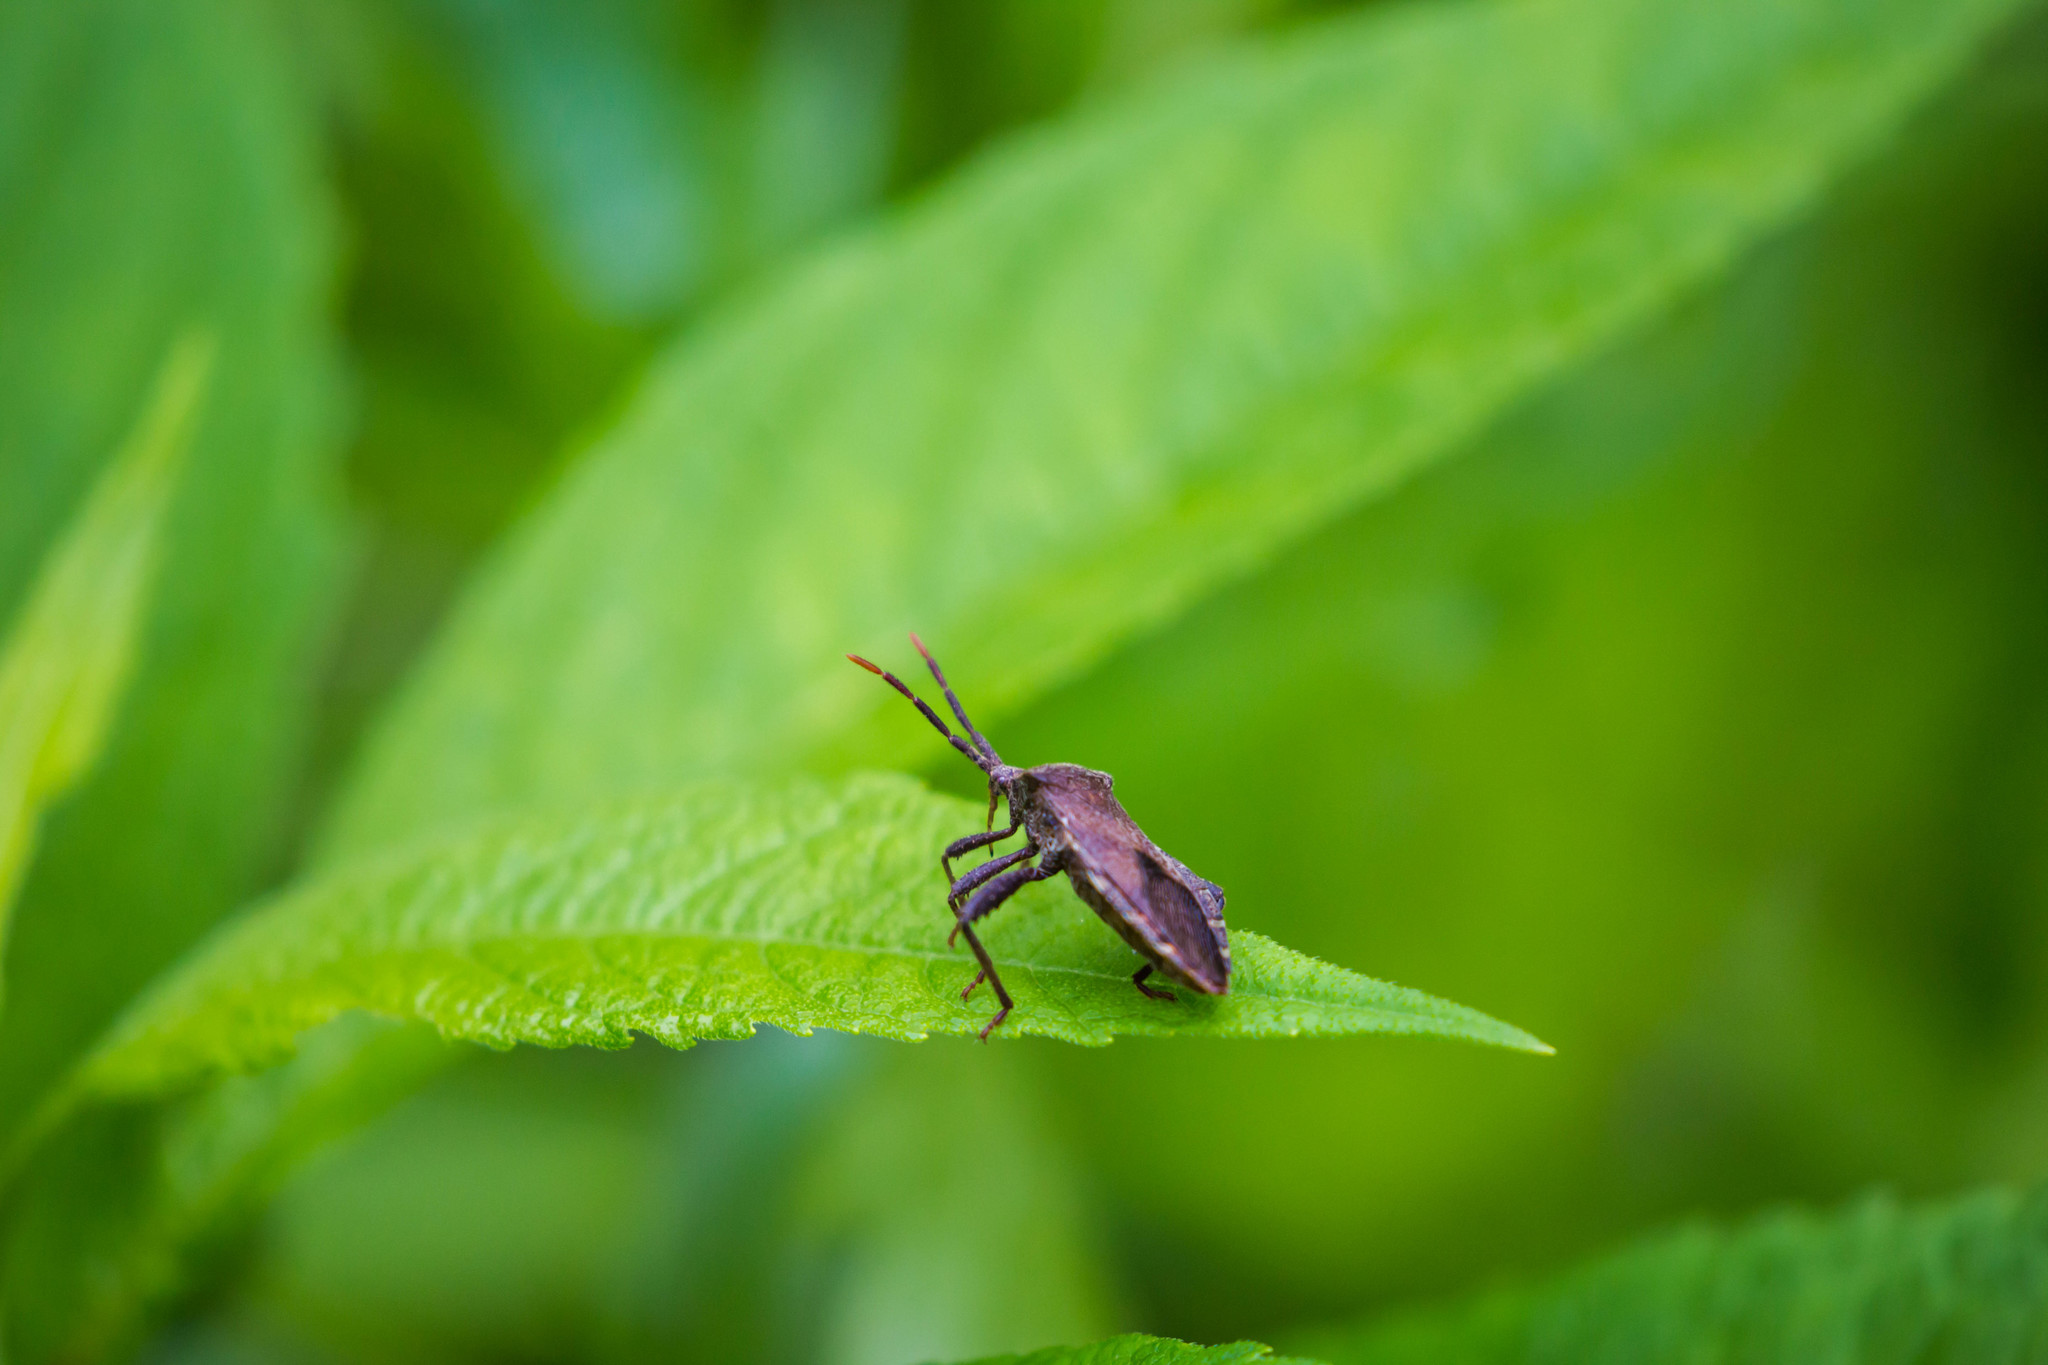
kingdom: Animalia
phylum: Arthropoda
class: Insecta
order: Hemiptera
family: Coreidae
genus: Piezogaster
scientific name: Piezogaster calcarator
